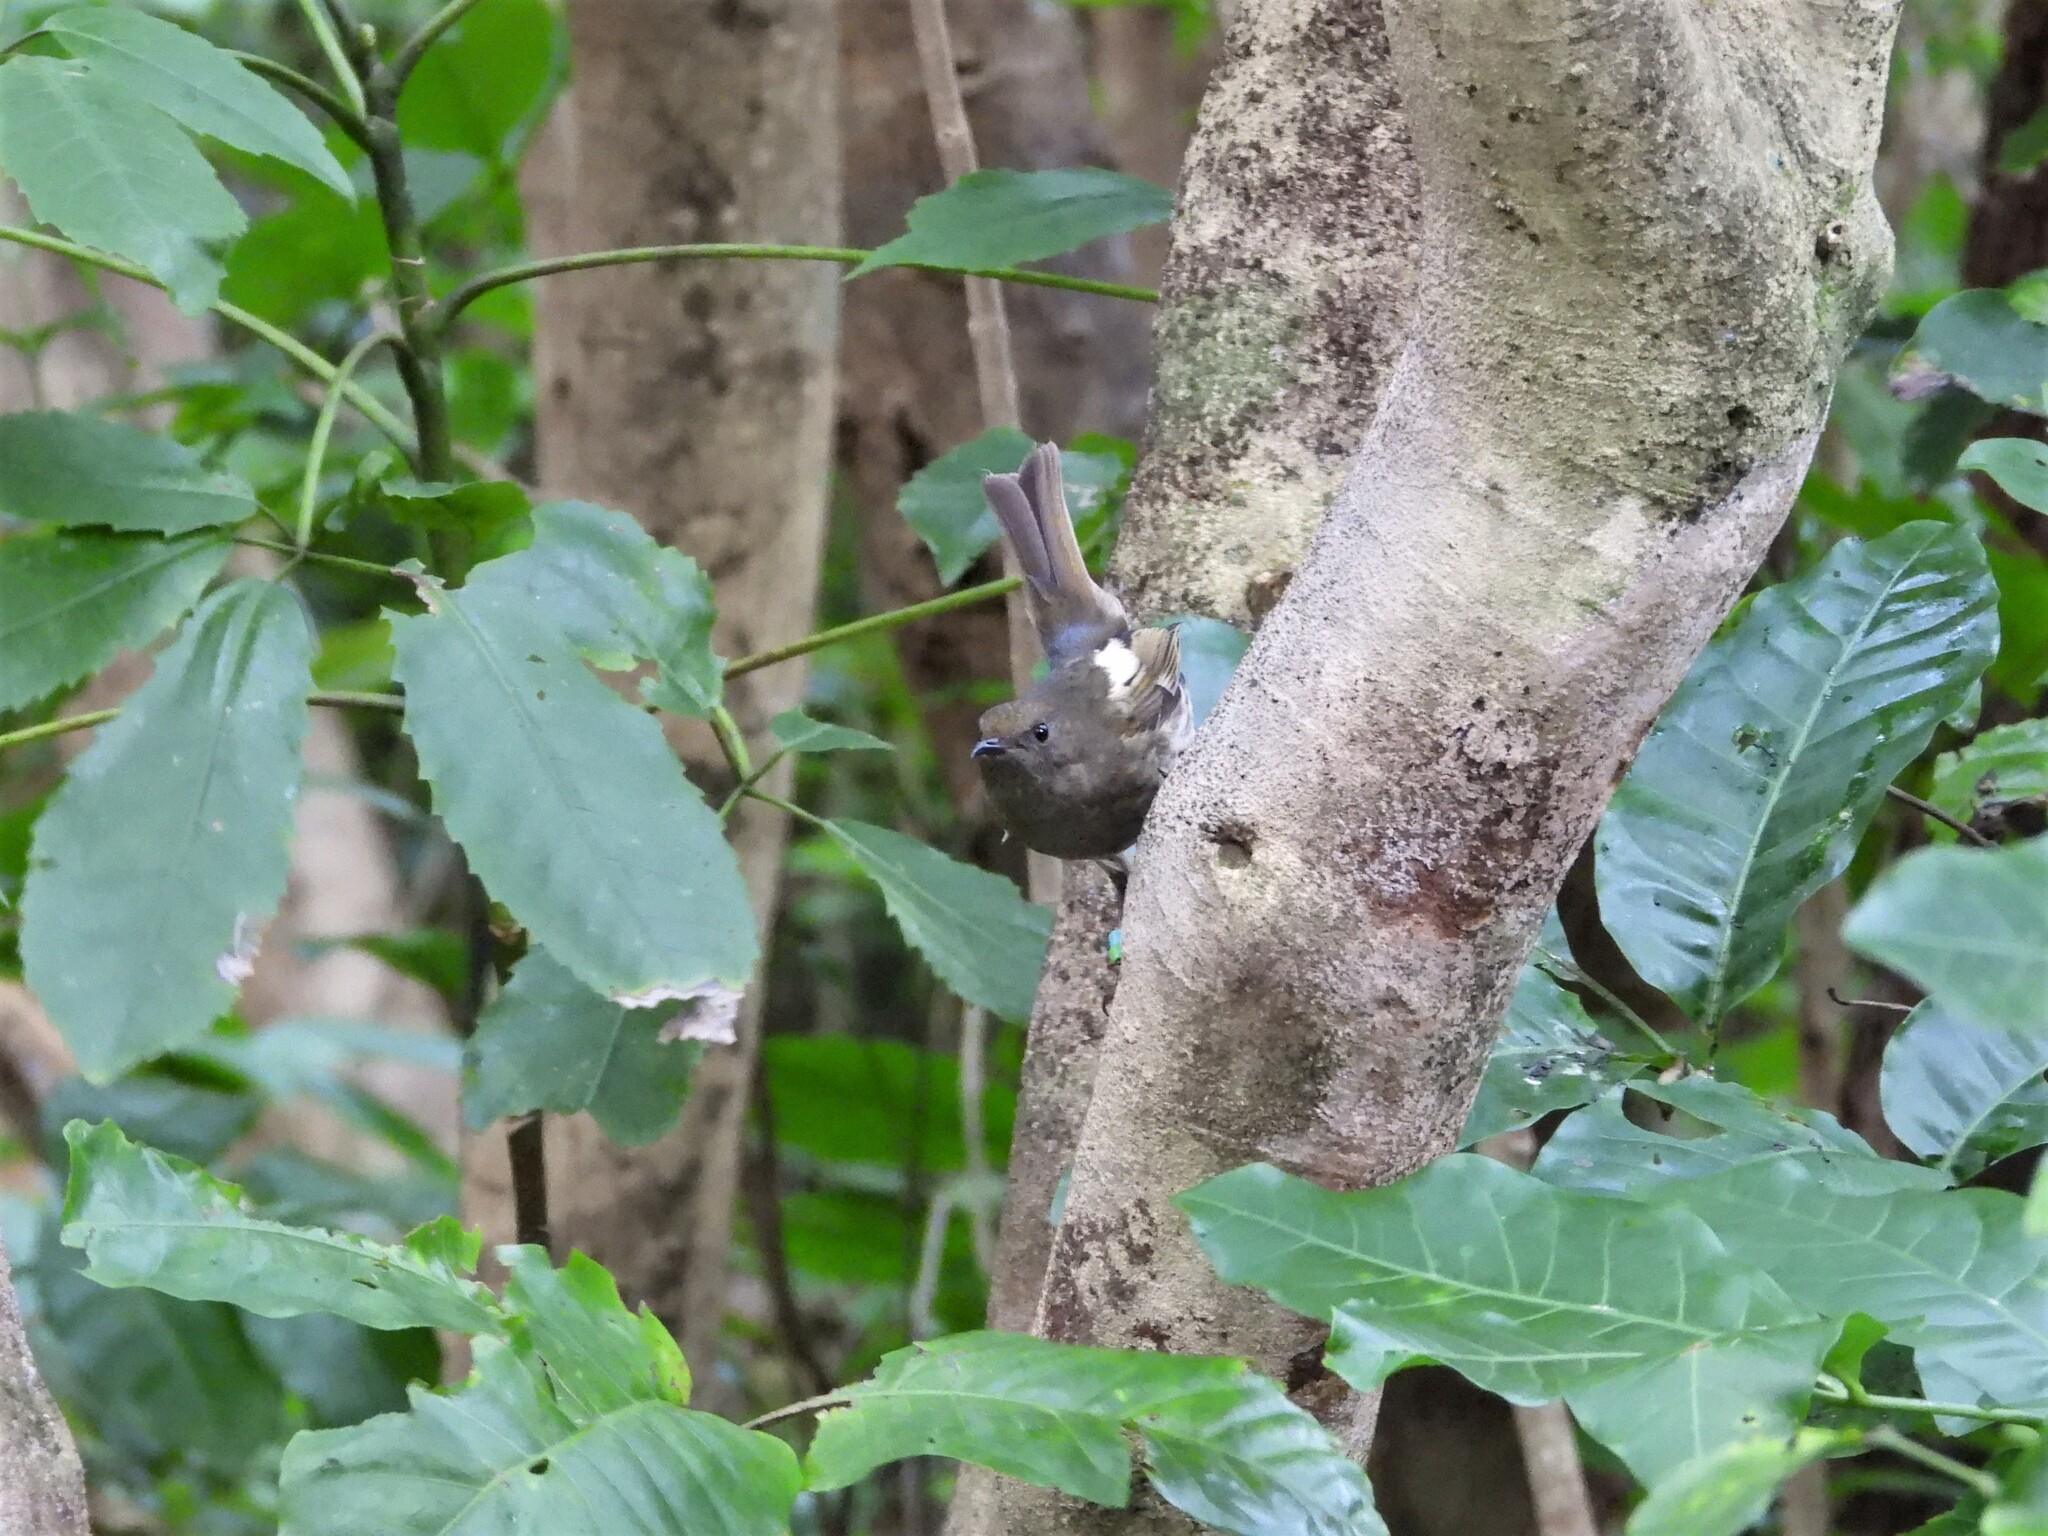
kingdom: Animalia
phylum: Chordata
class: Aves
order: Passeriformes
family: Notiomystidae
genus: Notiomystis
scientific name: Notiomystis cincta
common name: Stitchbird
